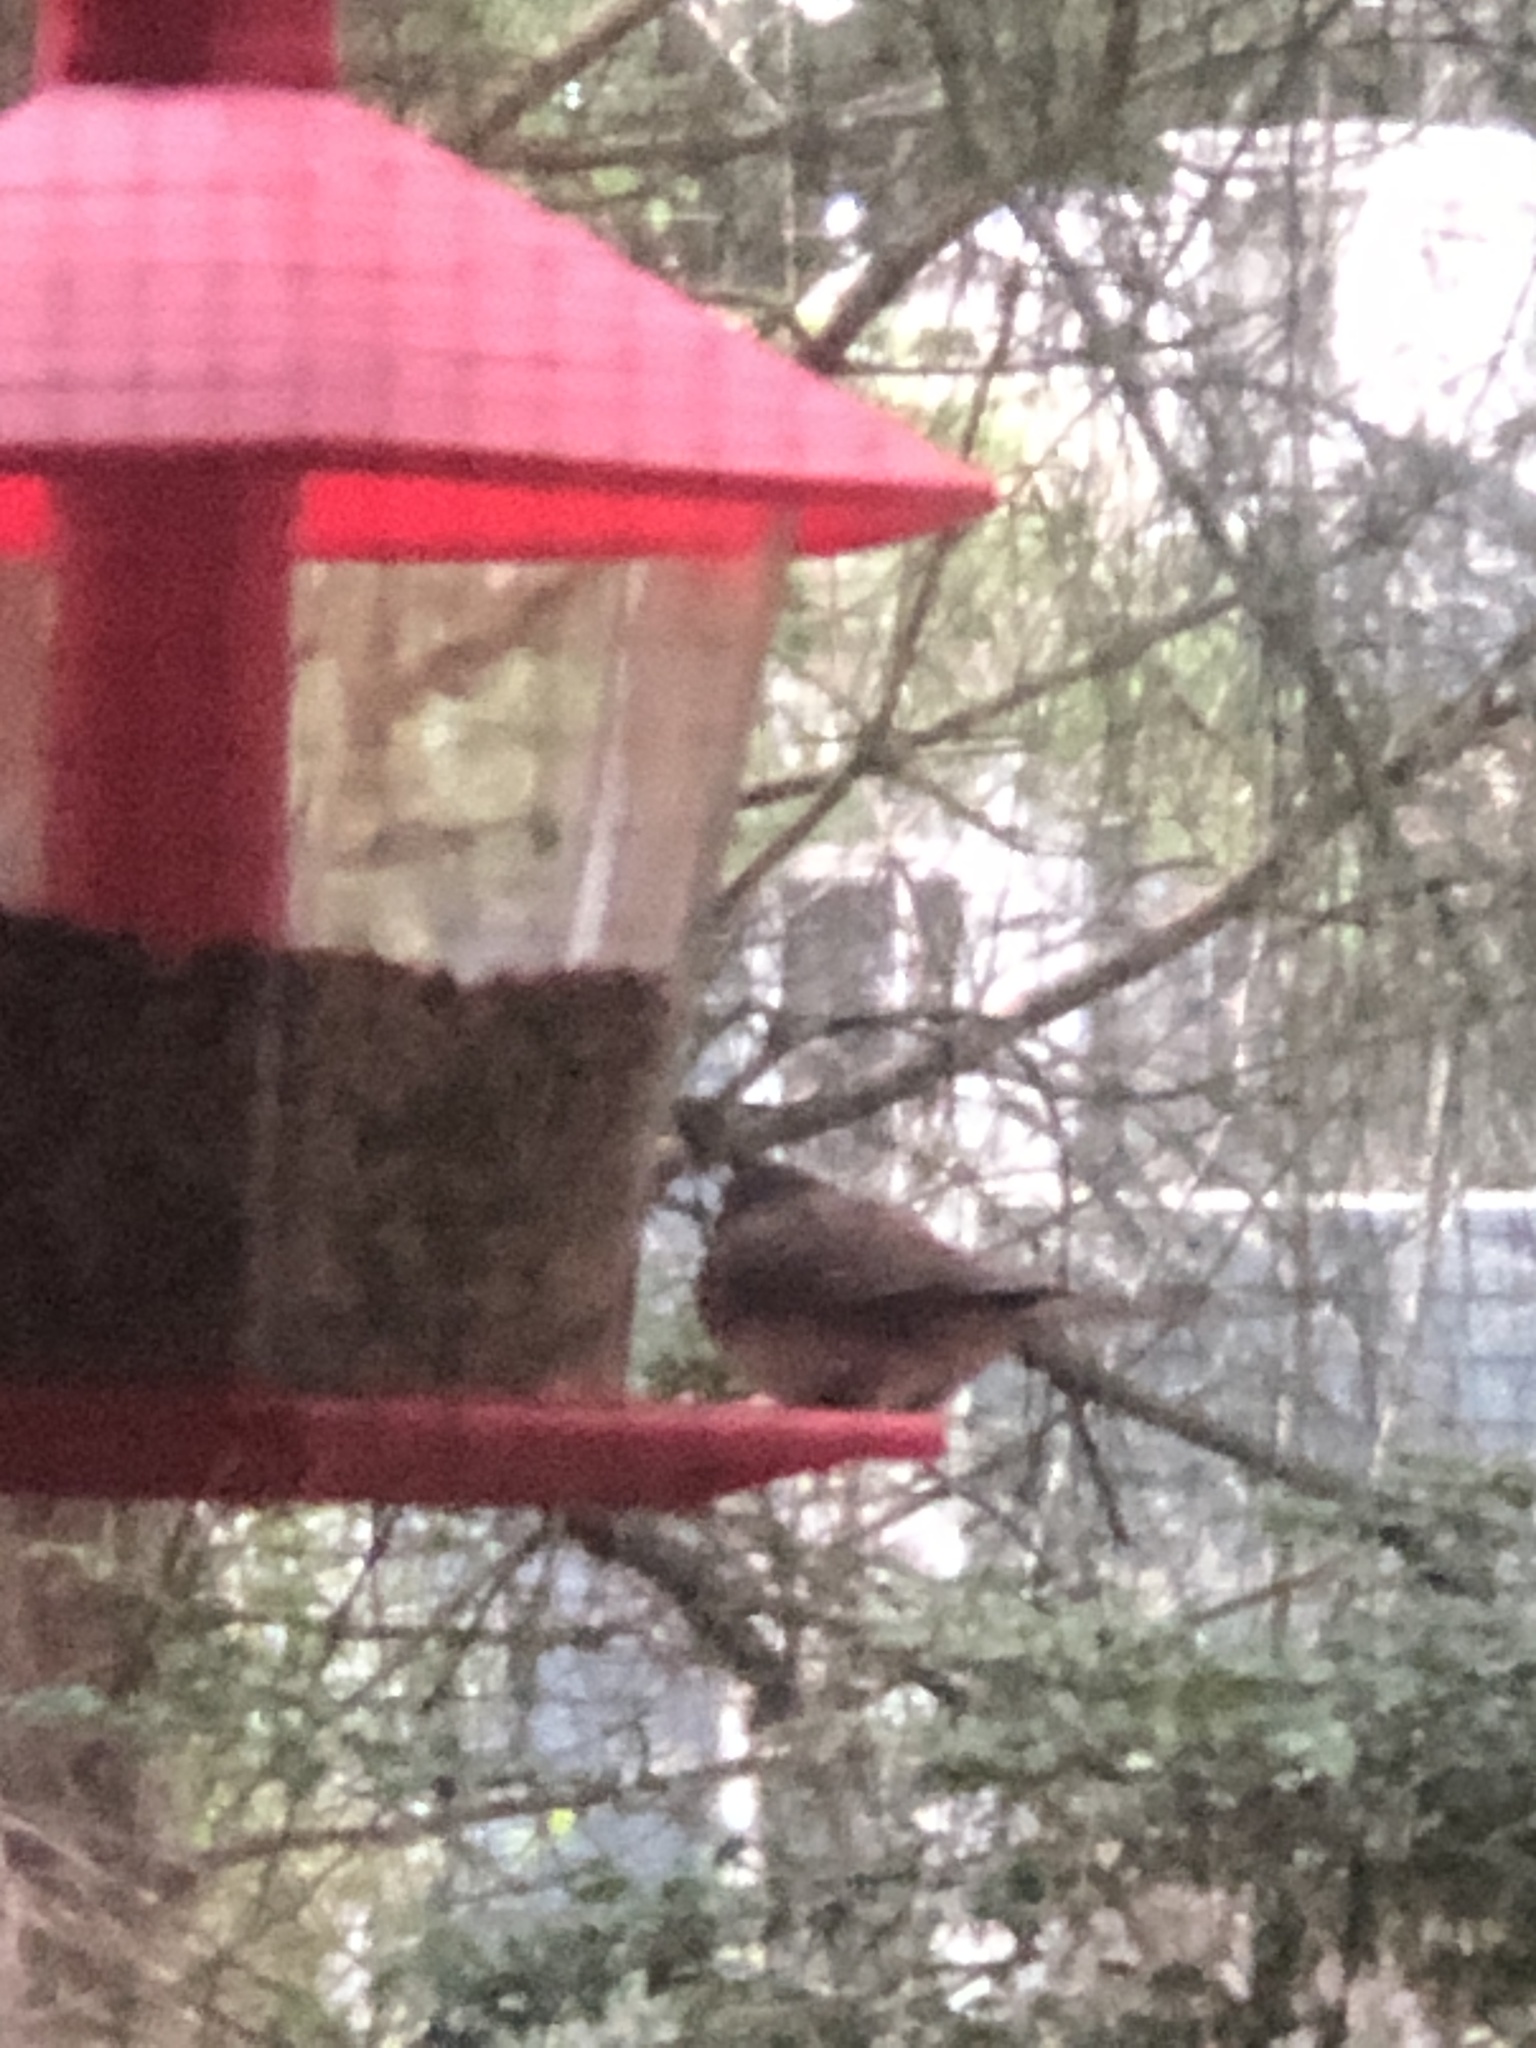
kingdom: Animalia
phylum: Chordata
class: Aves
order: Passeriformes
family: Passerellidae
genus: Junco
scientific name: Junco hyemalis
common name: Dark-eyed junco
